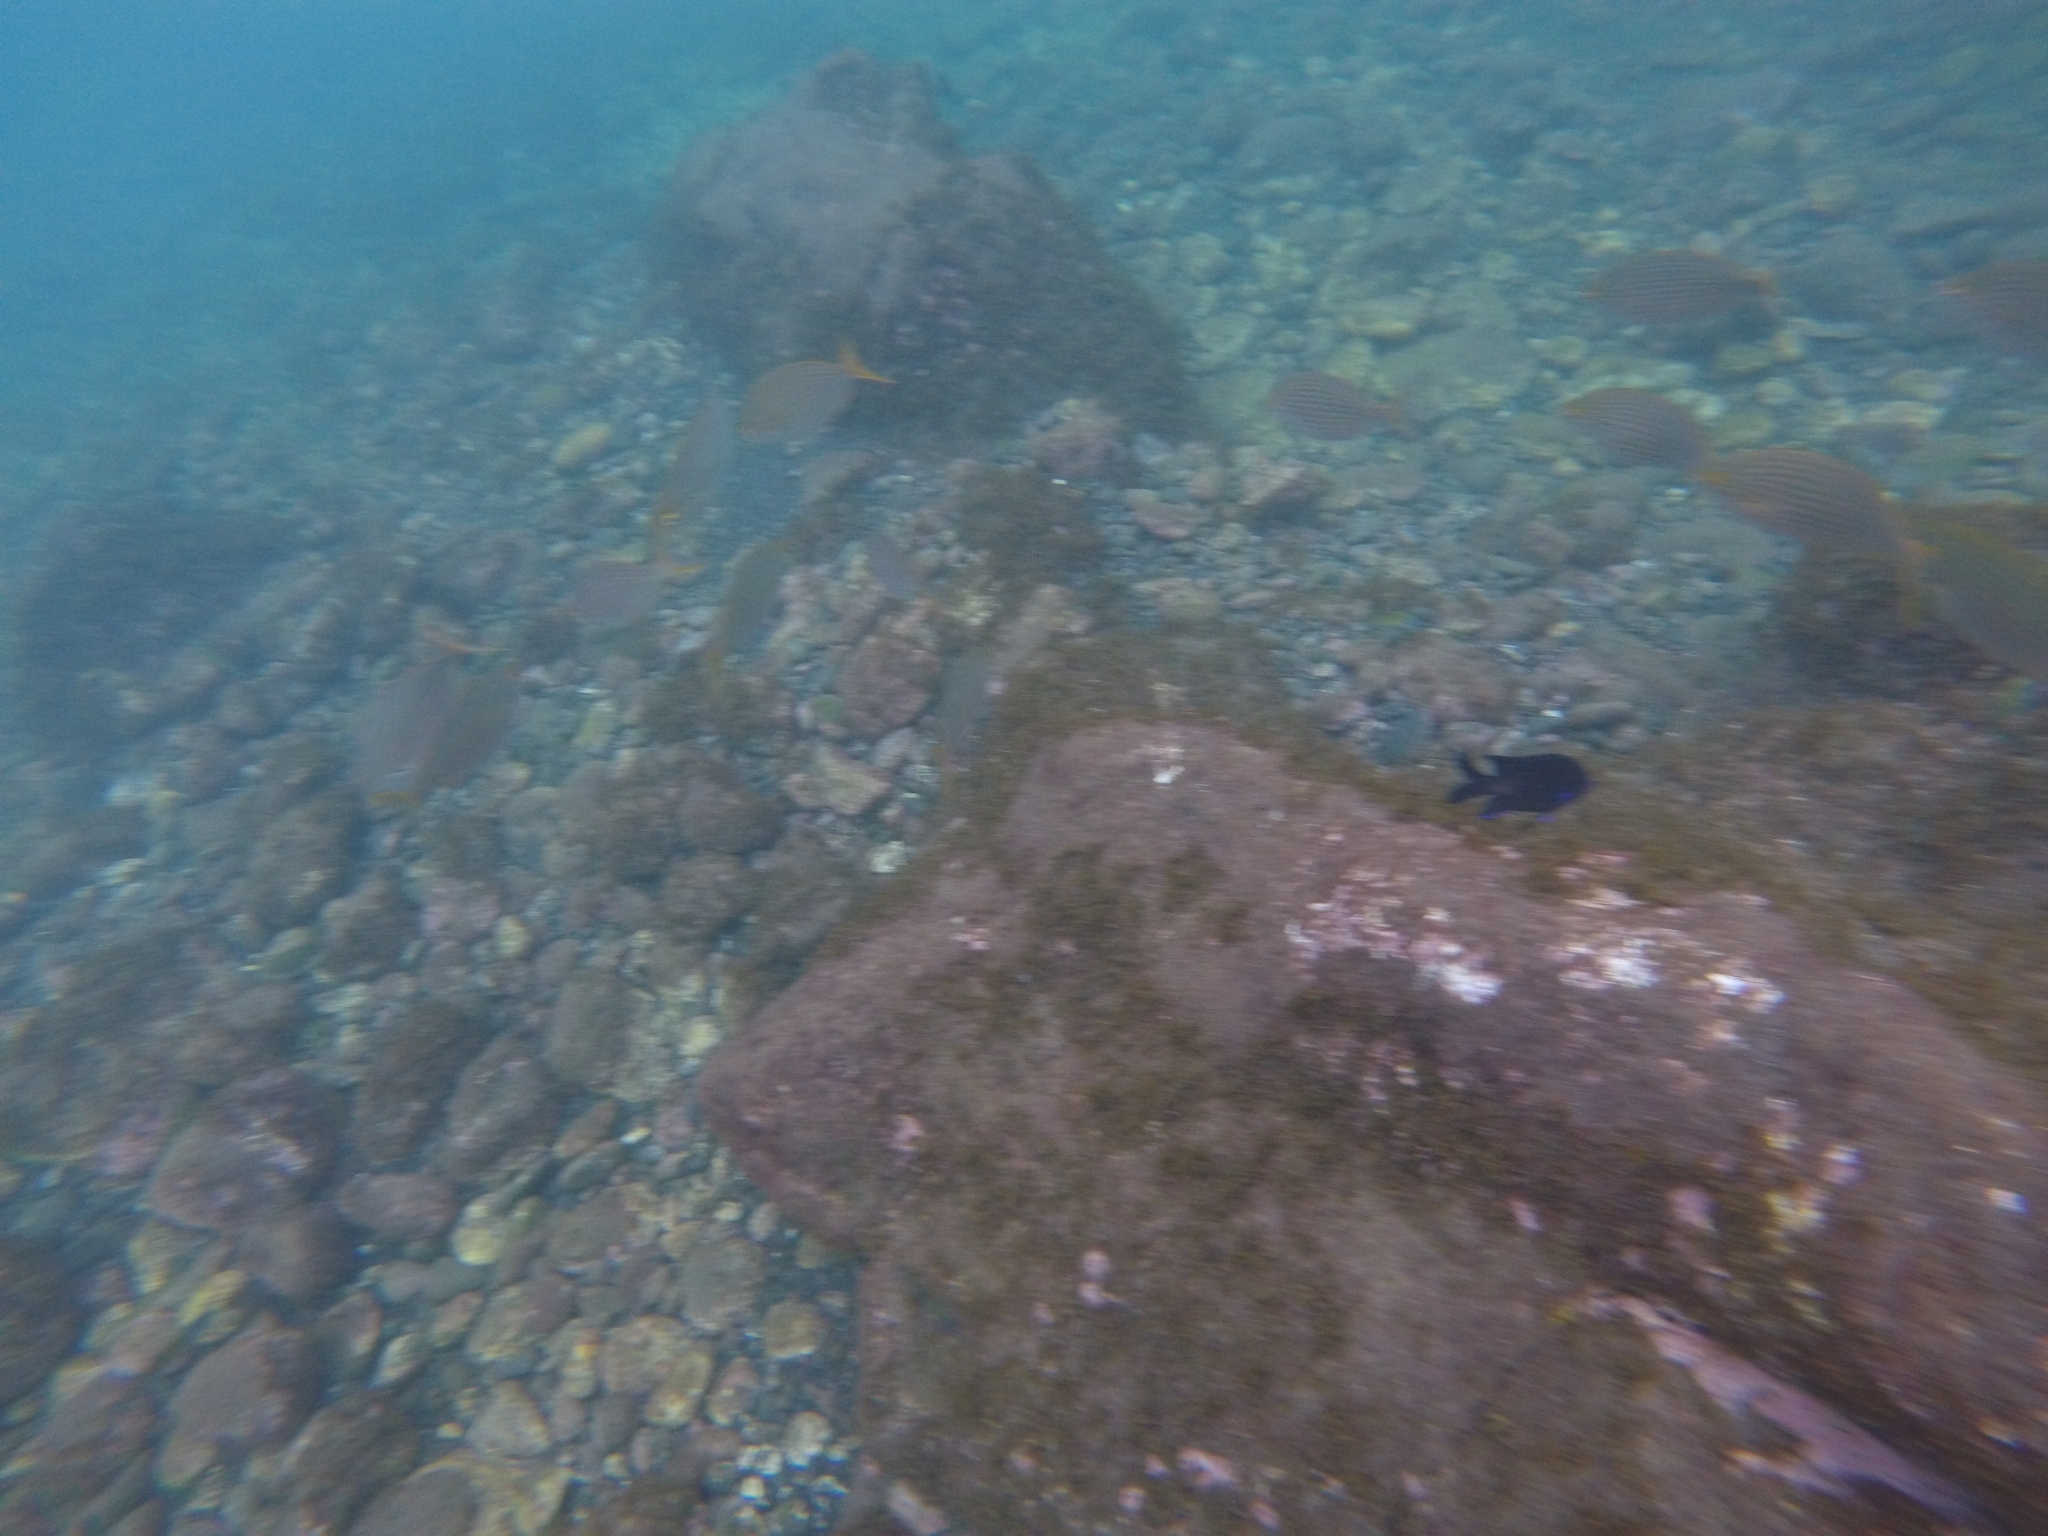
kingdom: Animalia
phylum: Chordata
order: Perciformes
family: Sparidae
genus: Sarpa
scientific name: Sarpa salpa
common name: Salema
